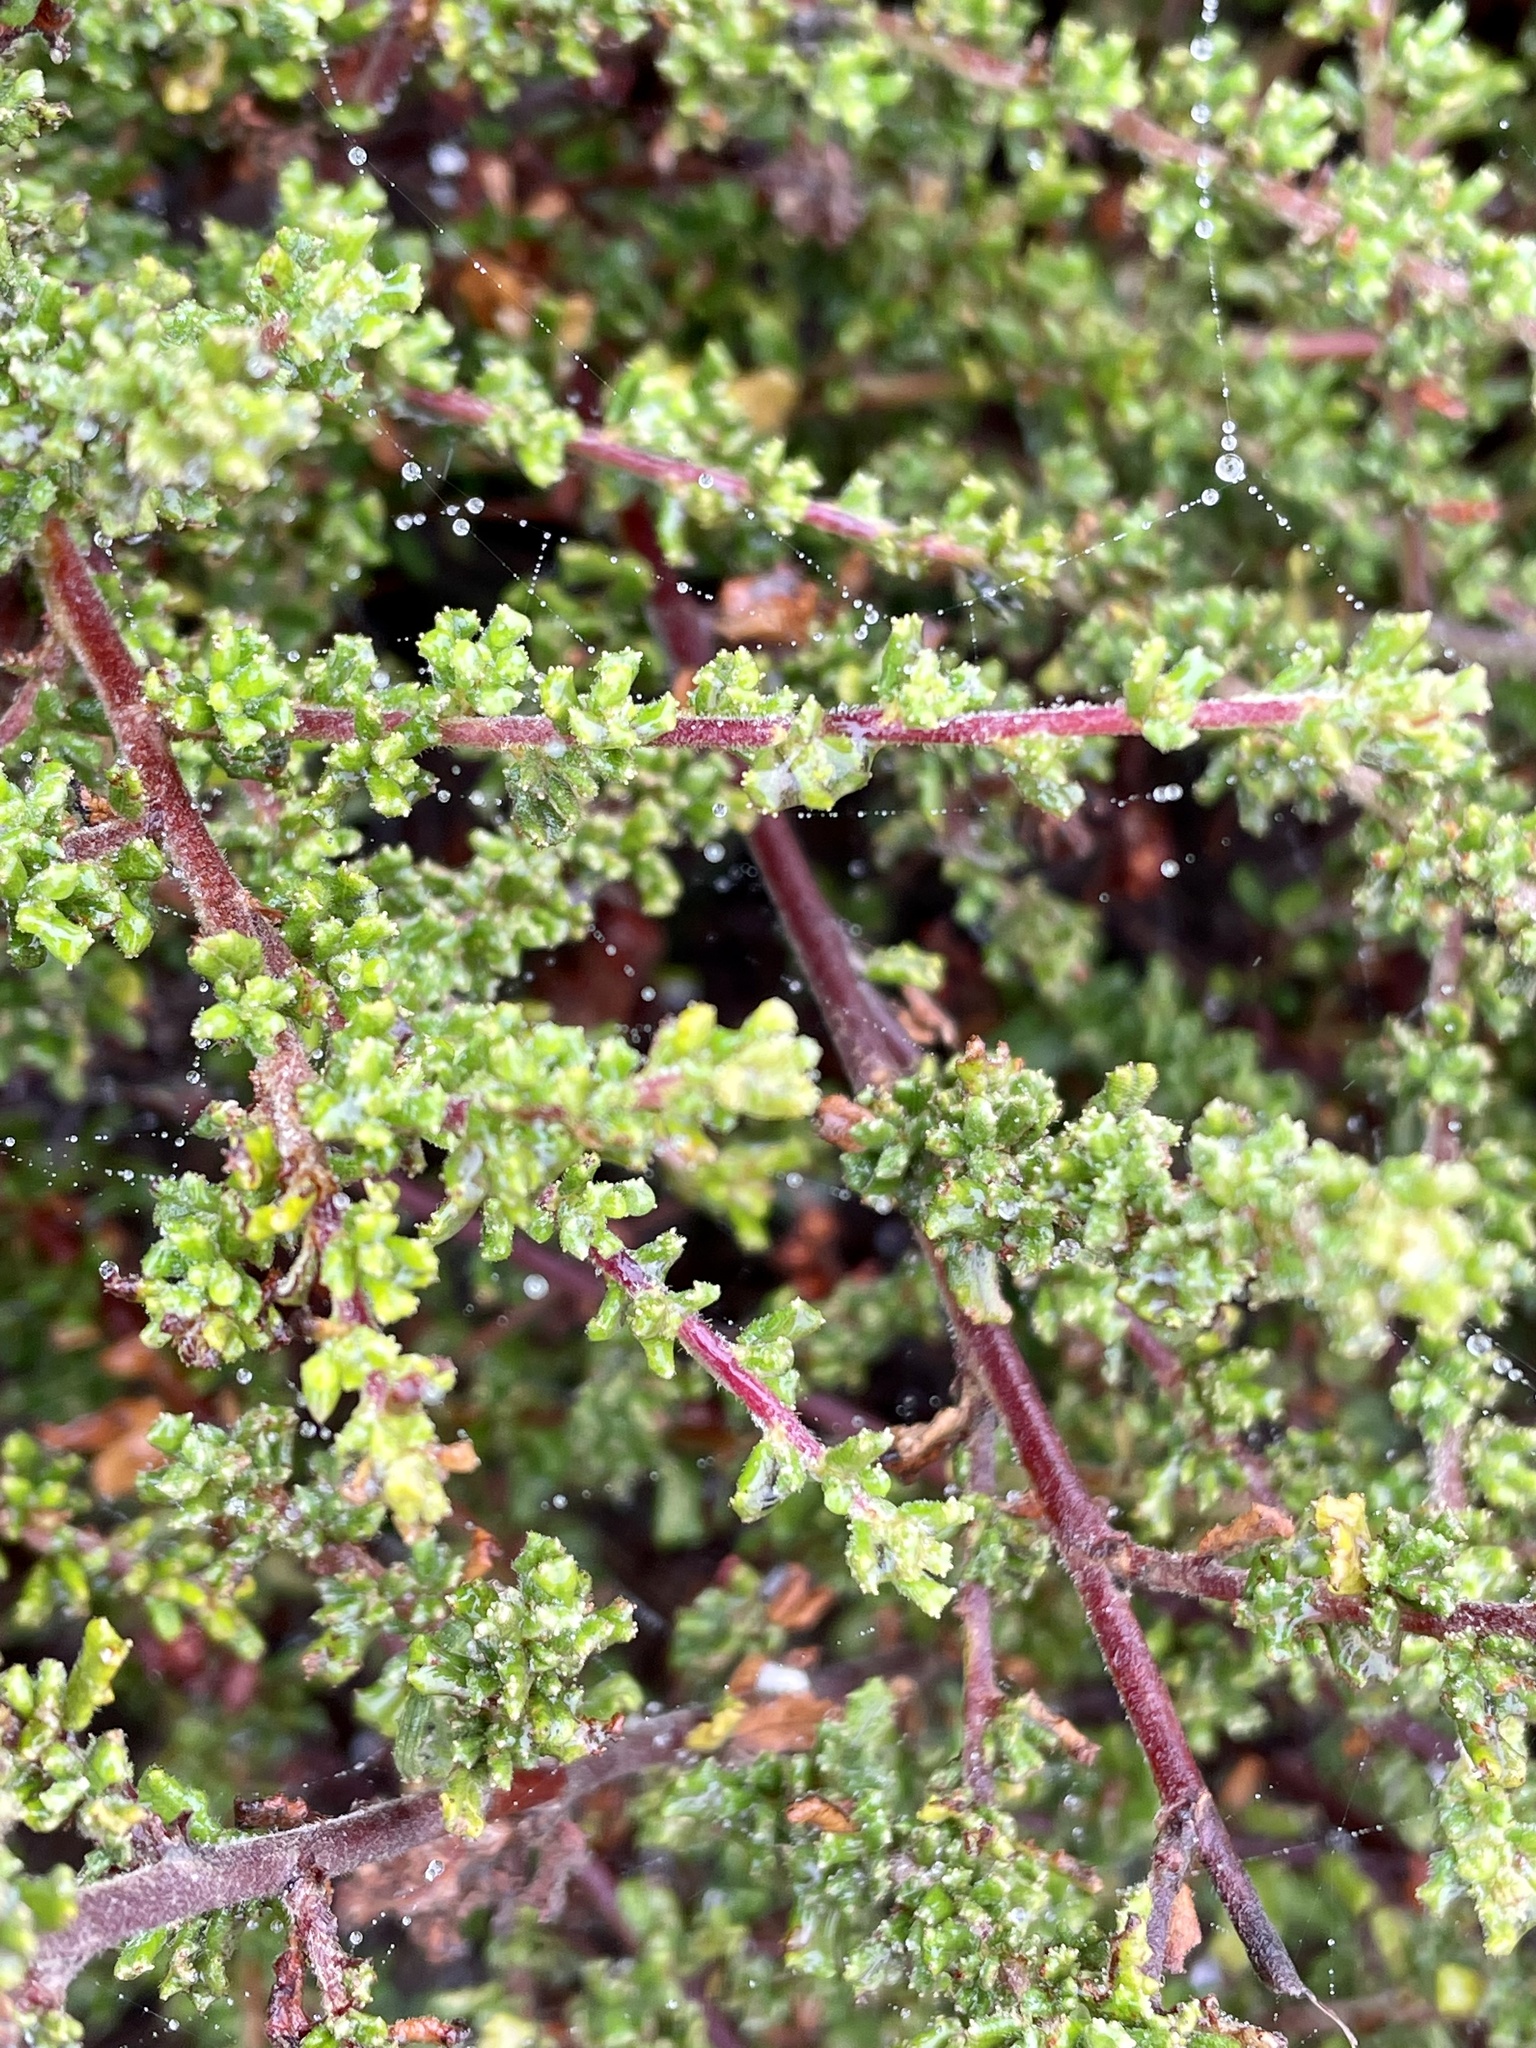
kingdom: Plantae
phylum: Tracheophyta
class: Magnoliopsida
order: Rosales
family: Rhamnaceae
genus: Ceanothus
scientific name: Ceanothus dentatus
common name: Crop-leaf ceanothus
